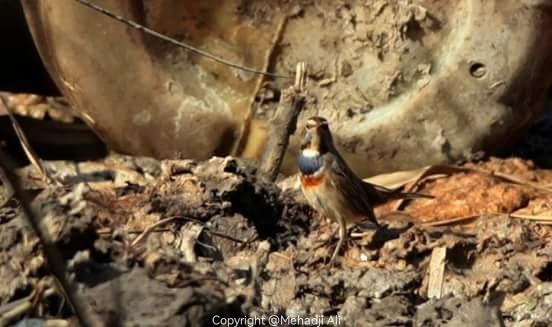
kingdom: Animalia
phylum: Chordata
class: Aves
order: Passeriformes
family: Muscicapidae
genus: Luscinia
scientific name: Luscinia svecica
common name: Bluethroat
